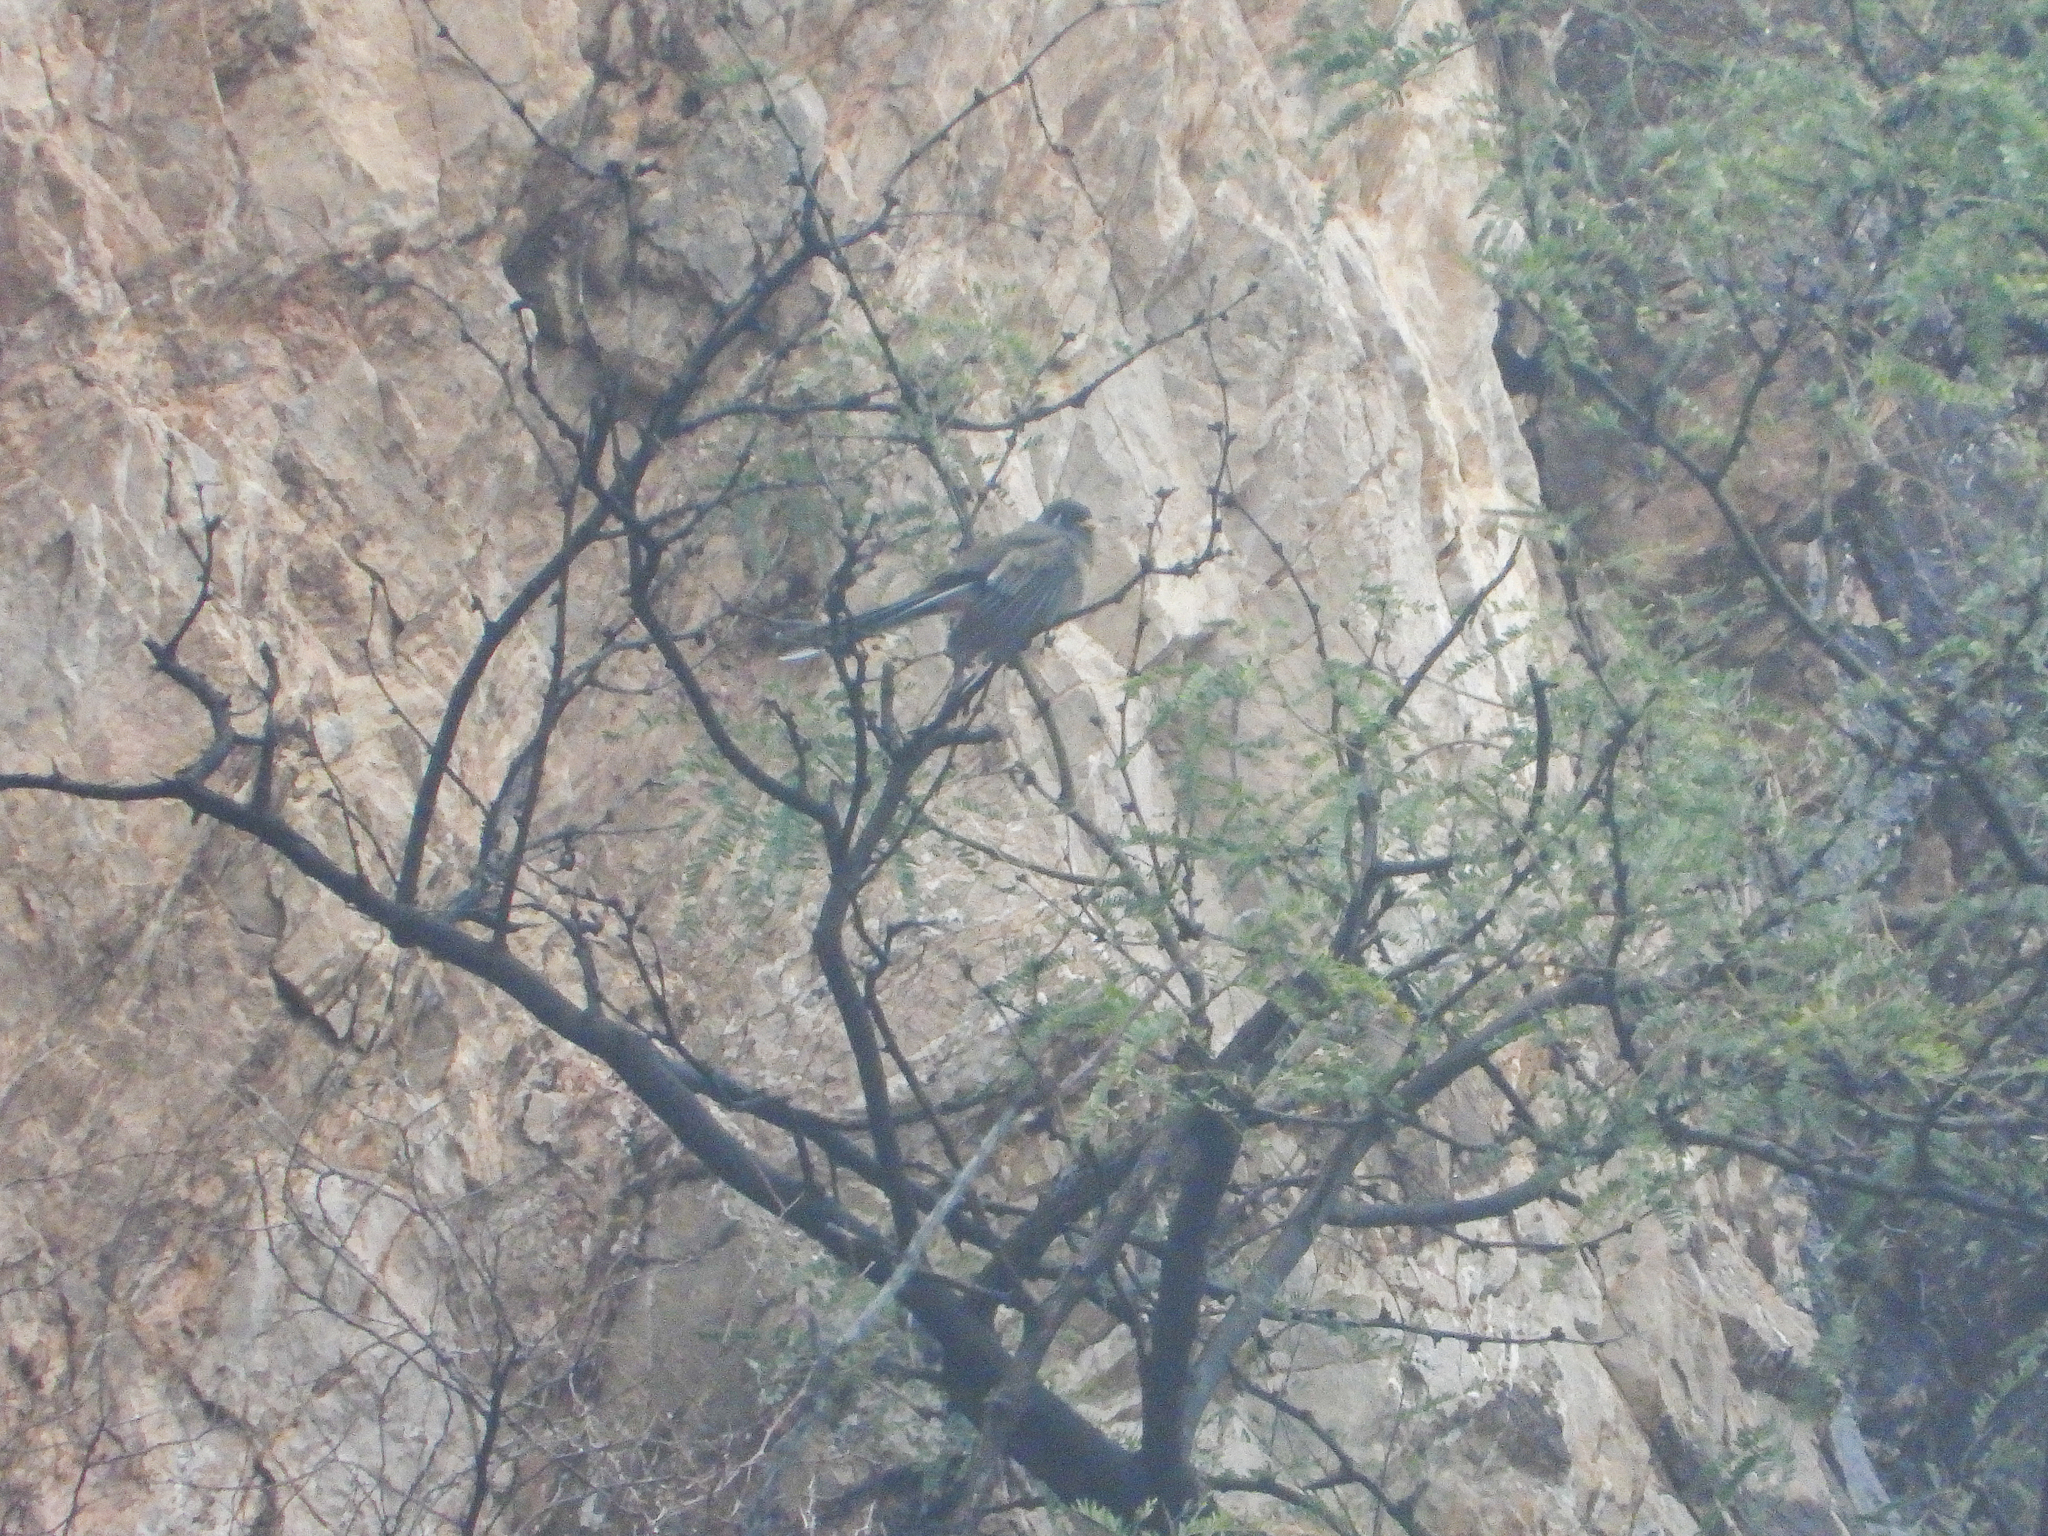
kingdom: Animalia
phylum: Chordata
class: Aves
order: Trogoniformes
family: Trogonidae
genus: Trogon
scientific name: Trogon elegans
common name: Elegant trogon
